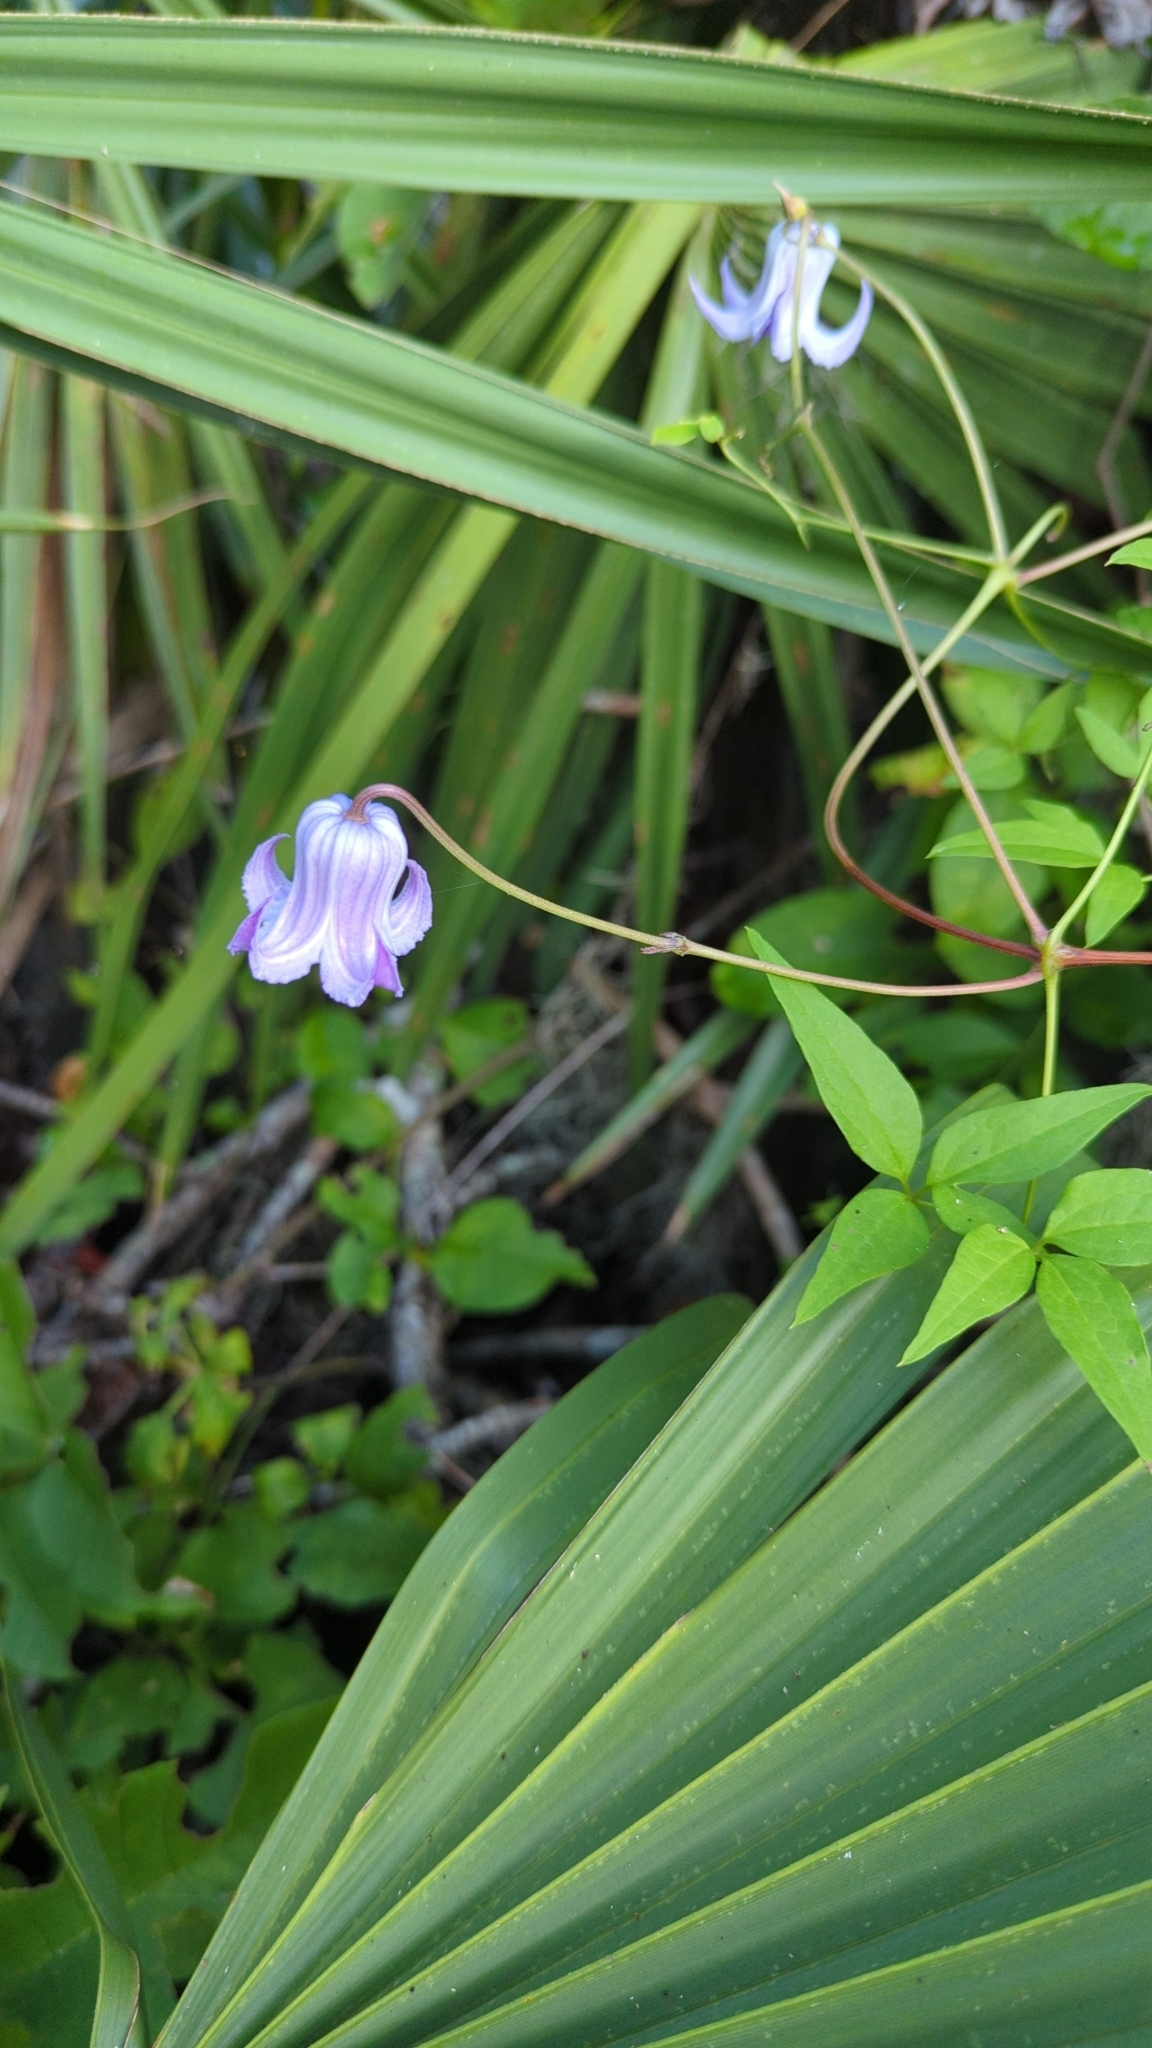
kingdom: Plantae
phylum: Tracheophyta
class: Magnoliopsida
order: Ranunculales
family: Ranunculaceae
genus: Clematis
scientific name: Clematis crispa
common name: Curly clematis
